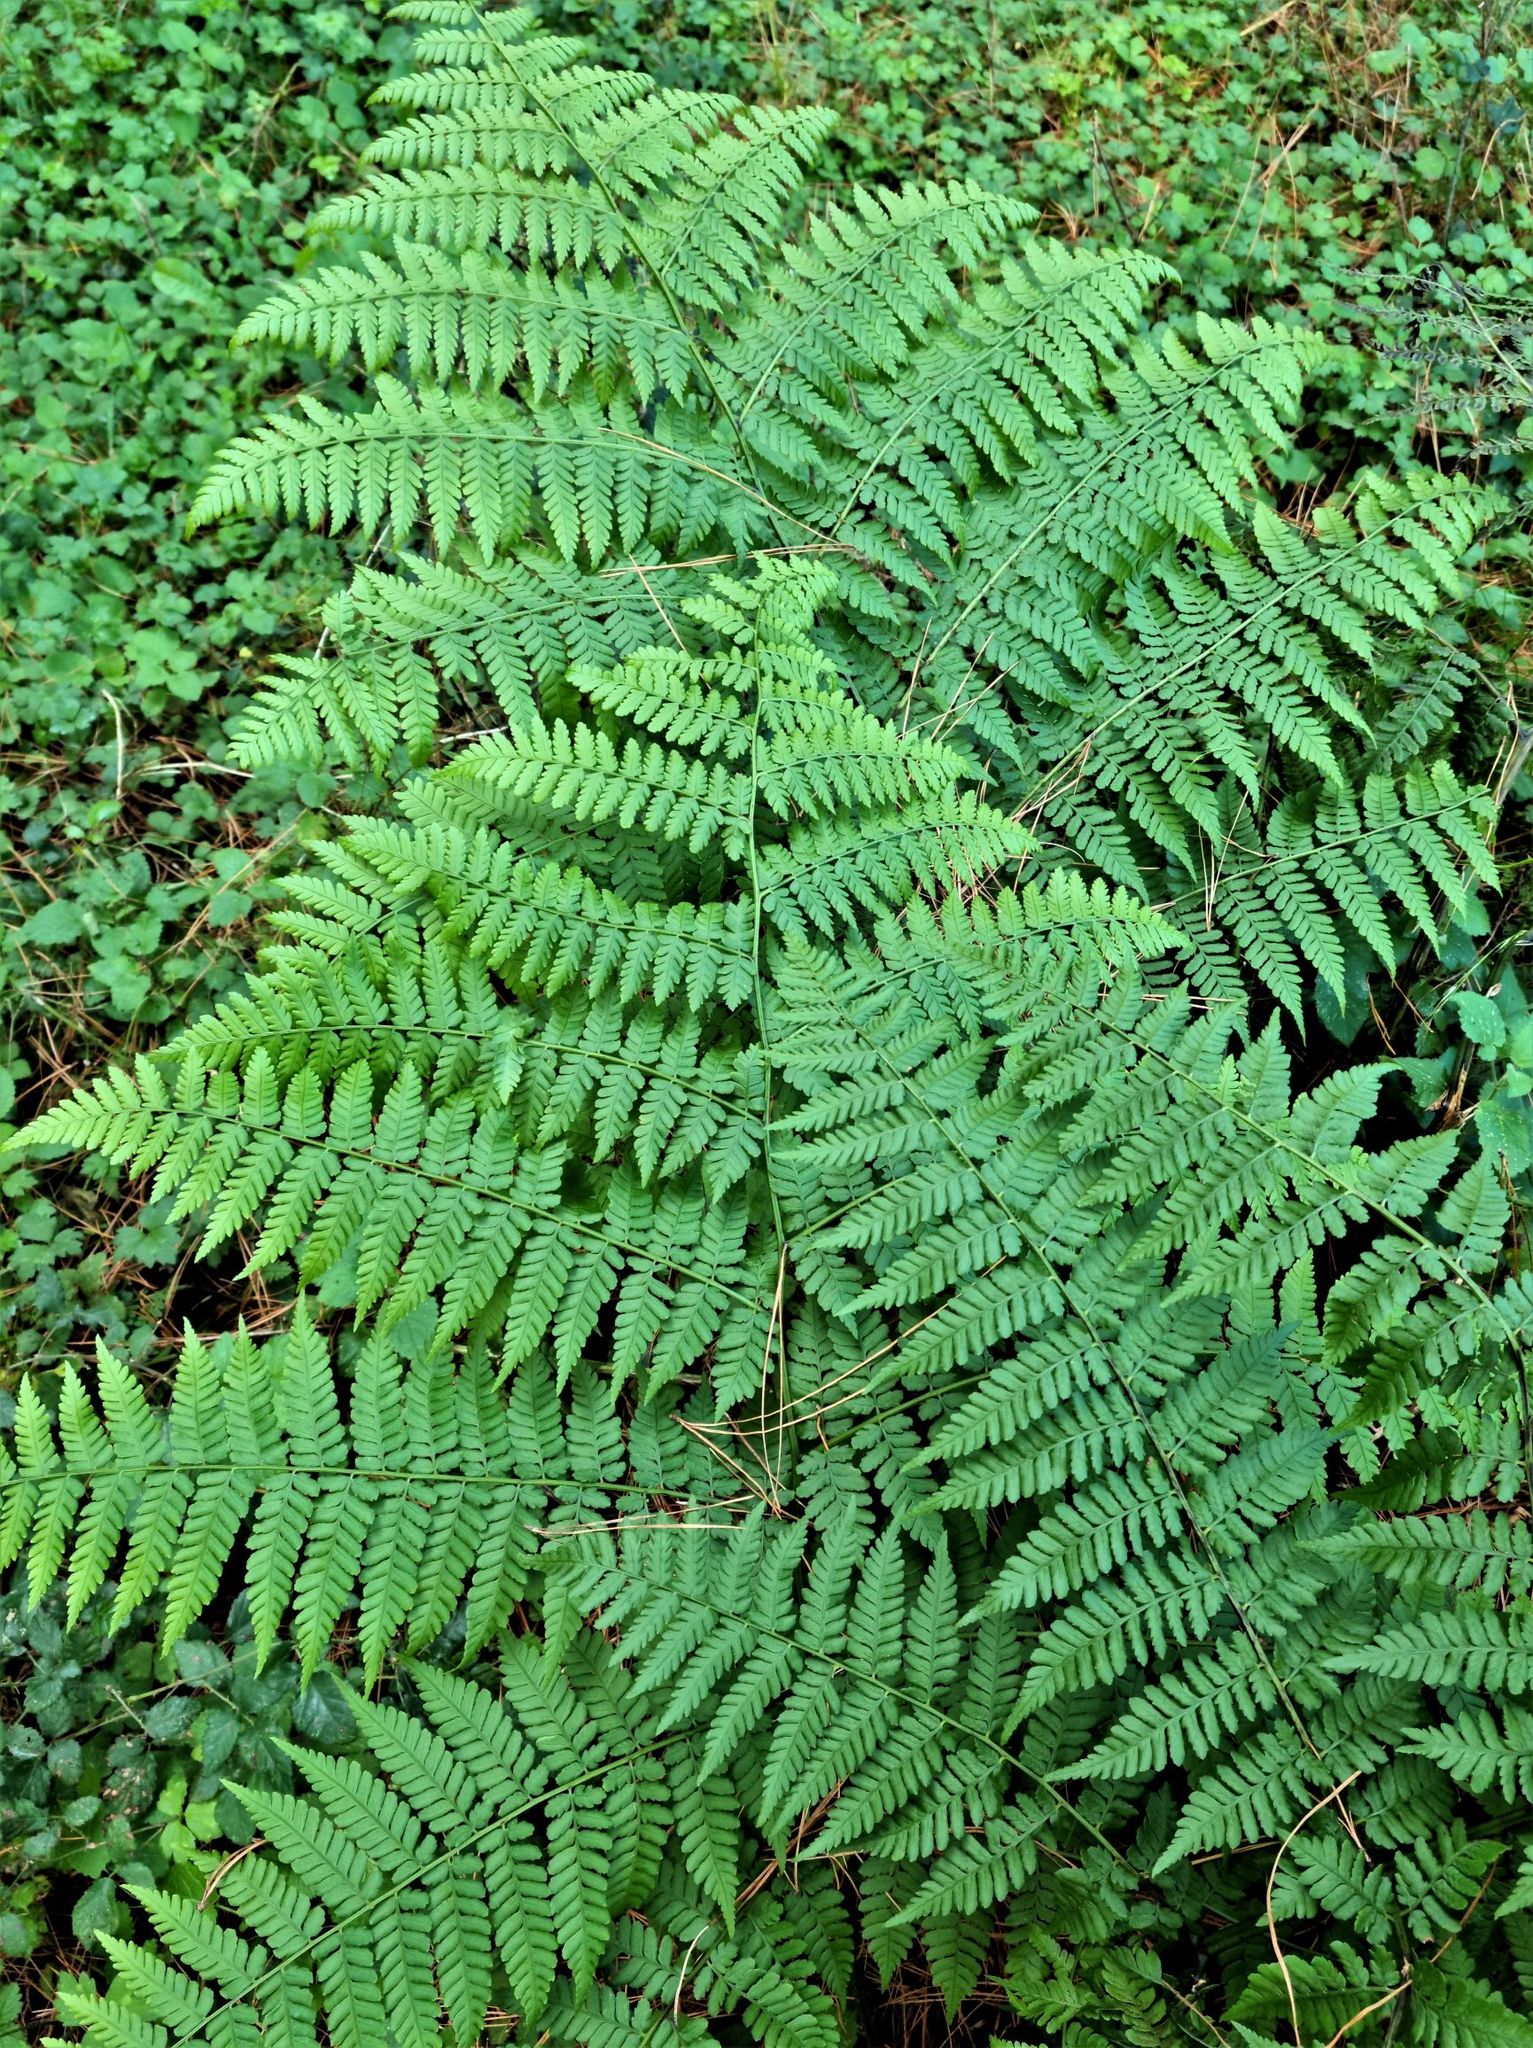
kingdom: Plantae
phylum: Tracheophyta
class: Polypodiopsida
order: Polypodiales
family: Athyriaceae
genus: Diplazium
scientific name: Diplazium australe
